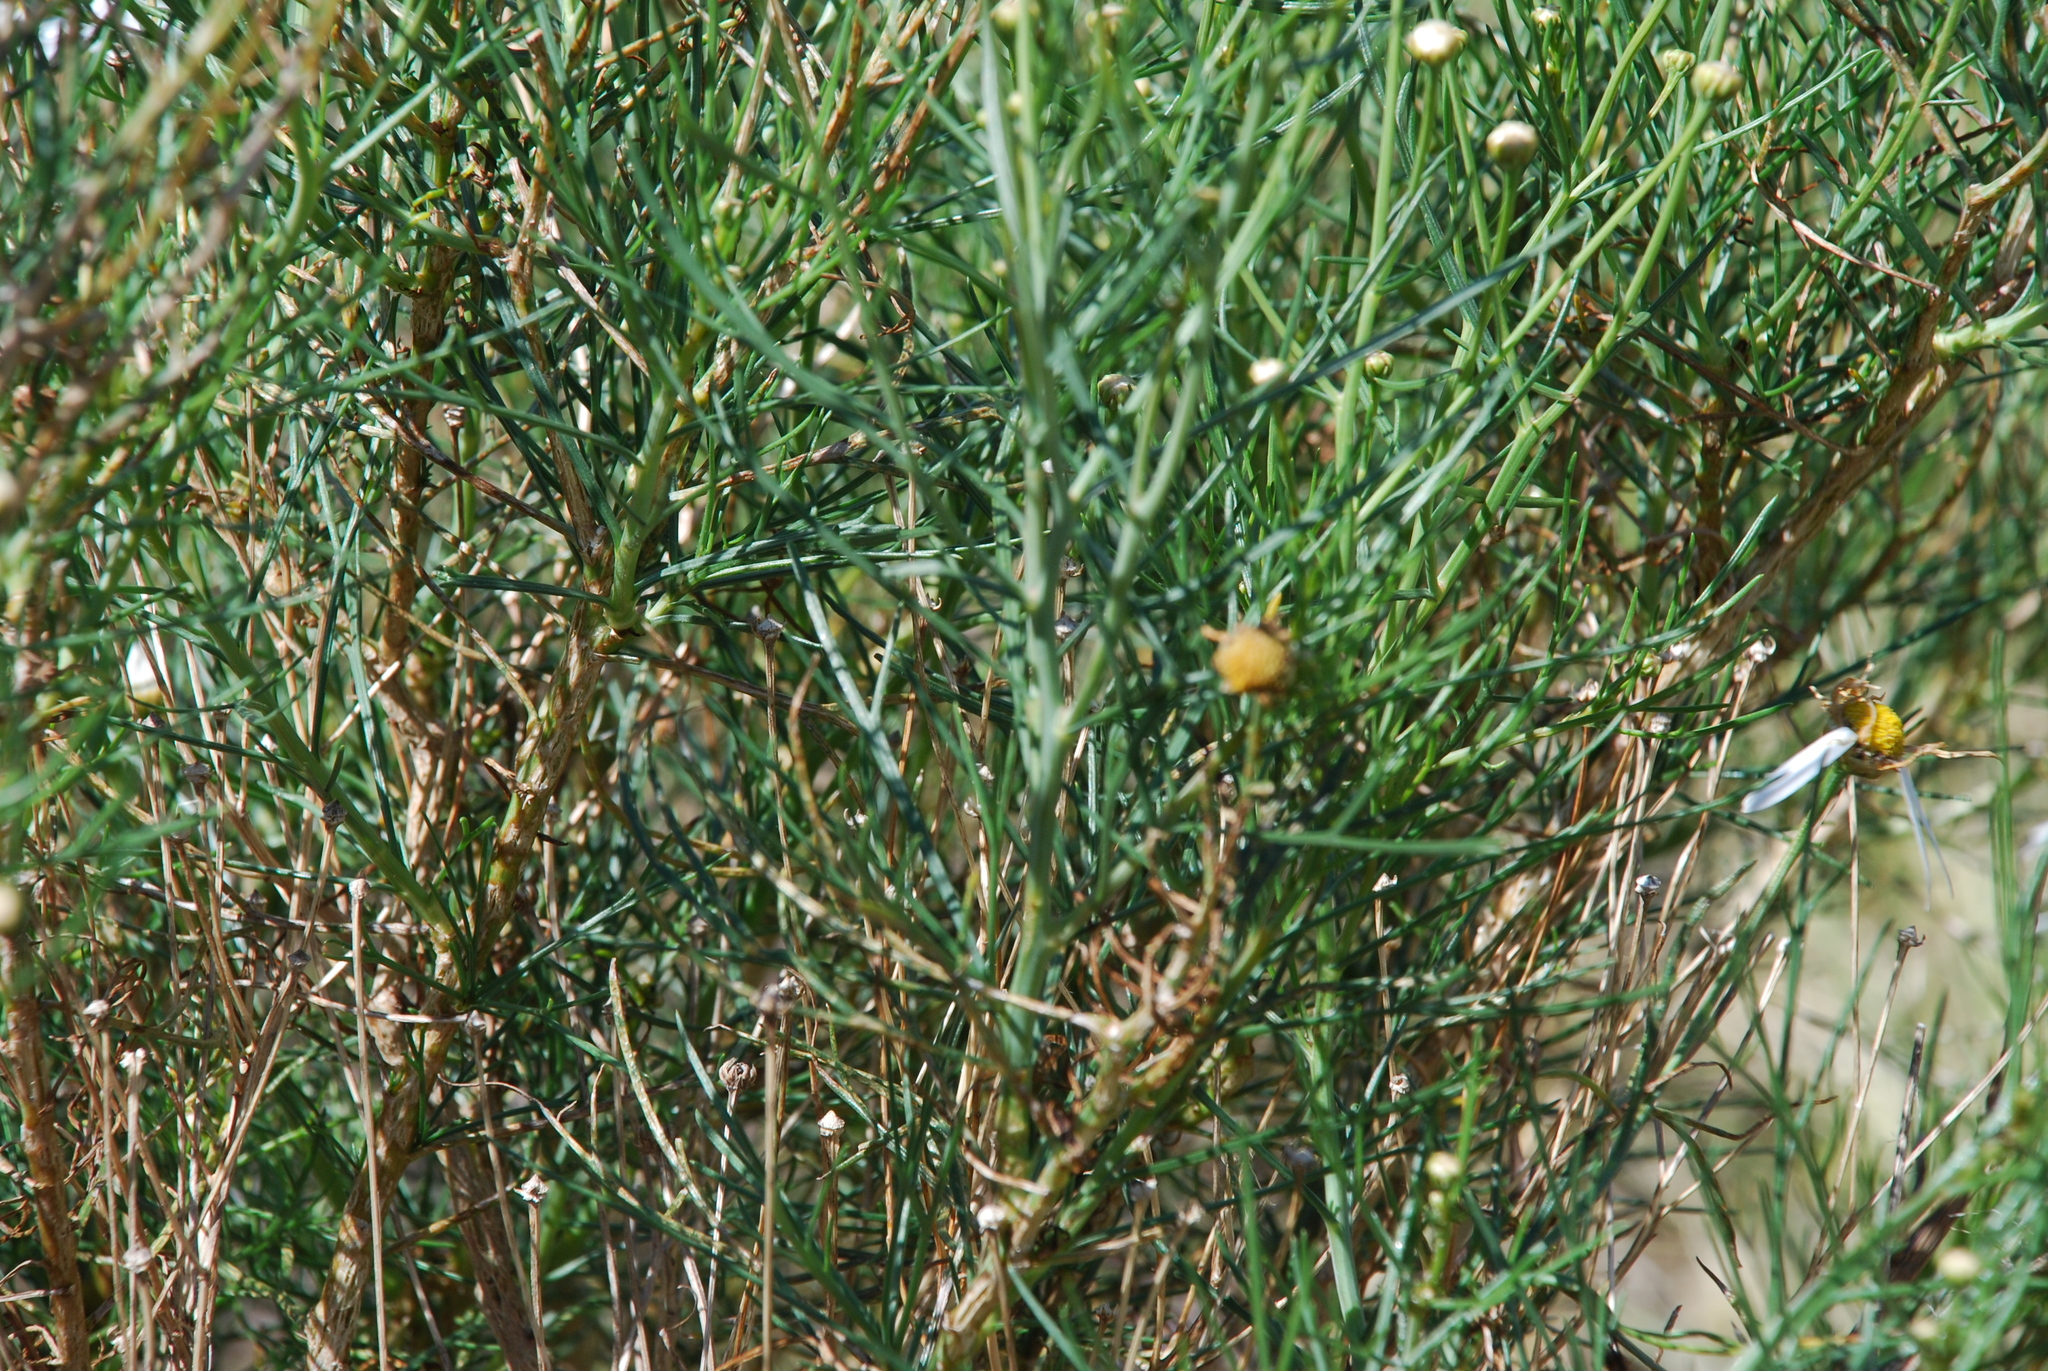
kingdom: Plantae
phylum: Tracheophyta
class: Magnoliopsida
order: Asterales
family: Asteraceae
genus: Argyranthemum
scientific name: Argyranthemum gracile
